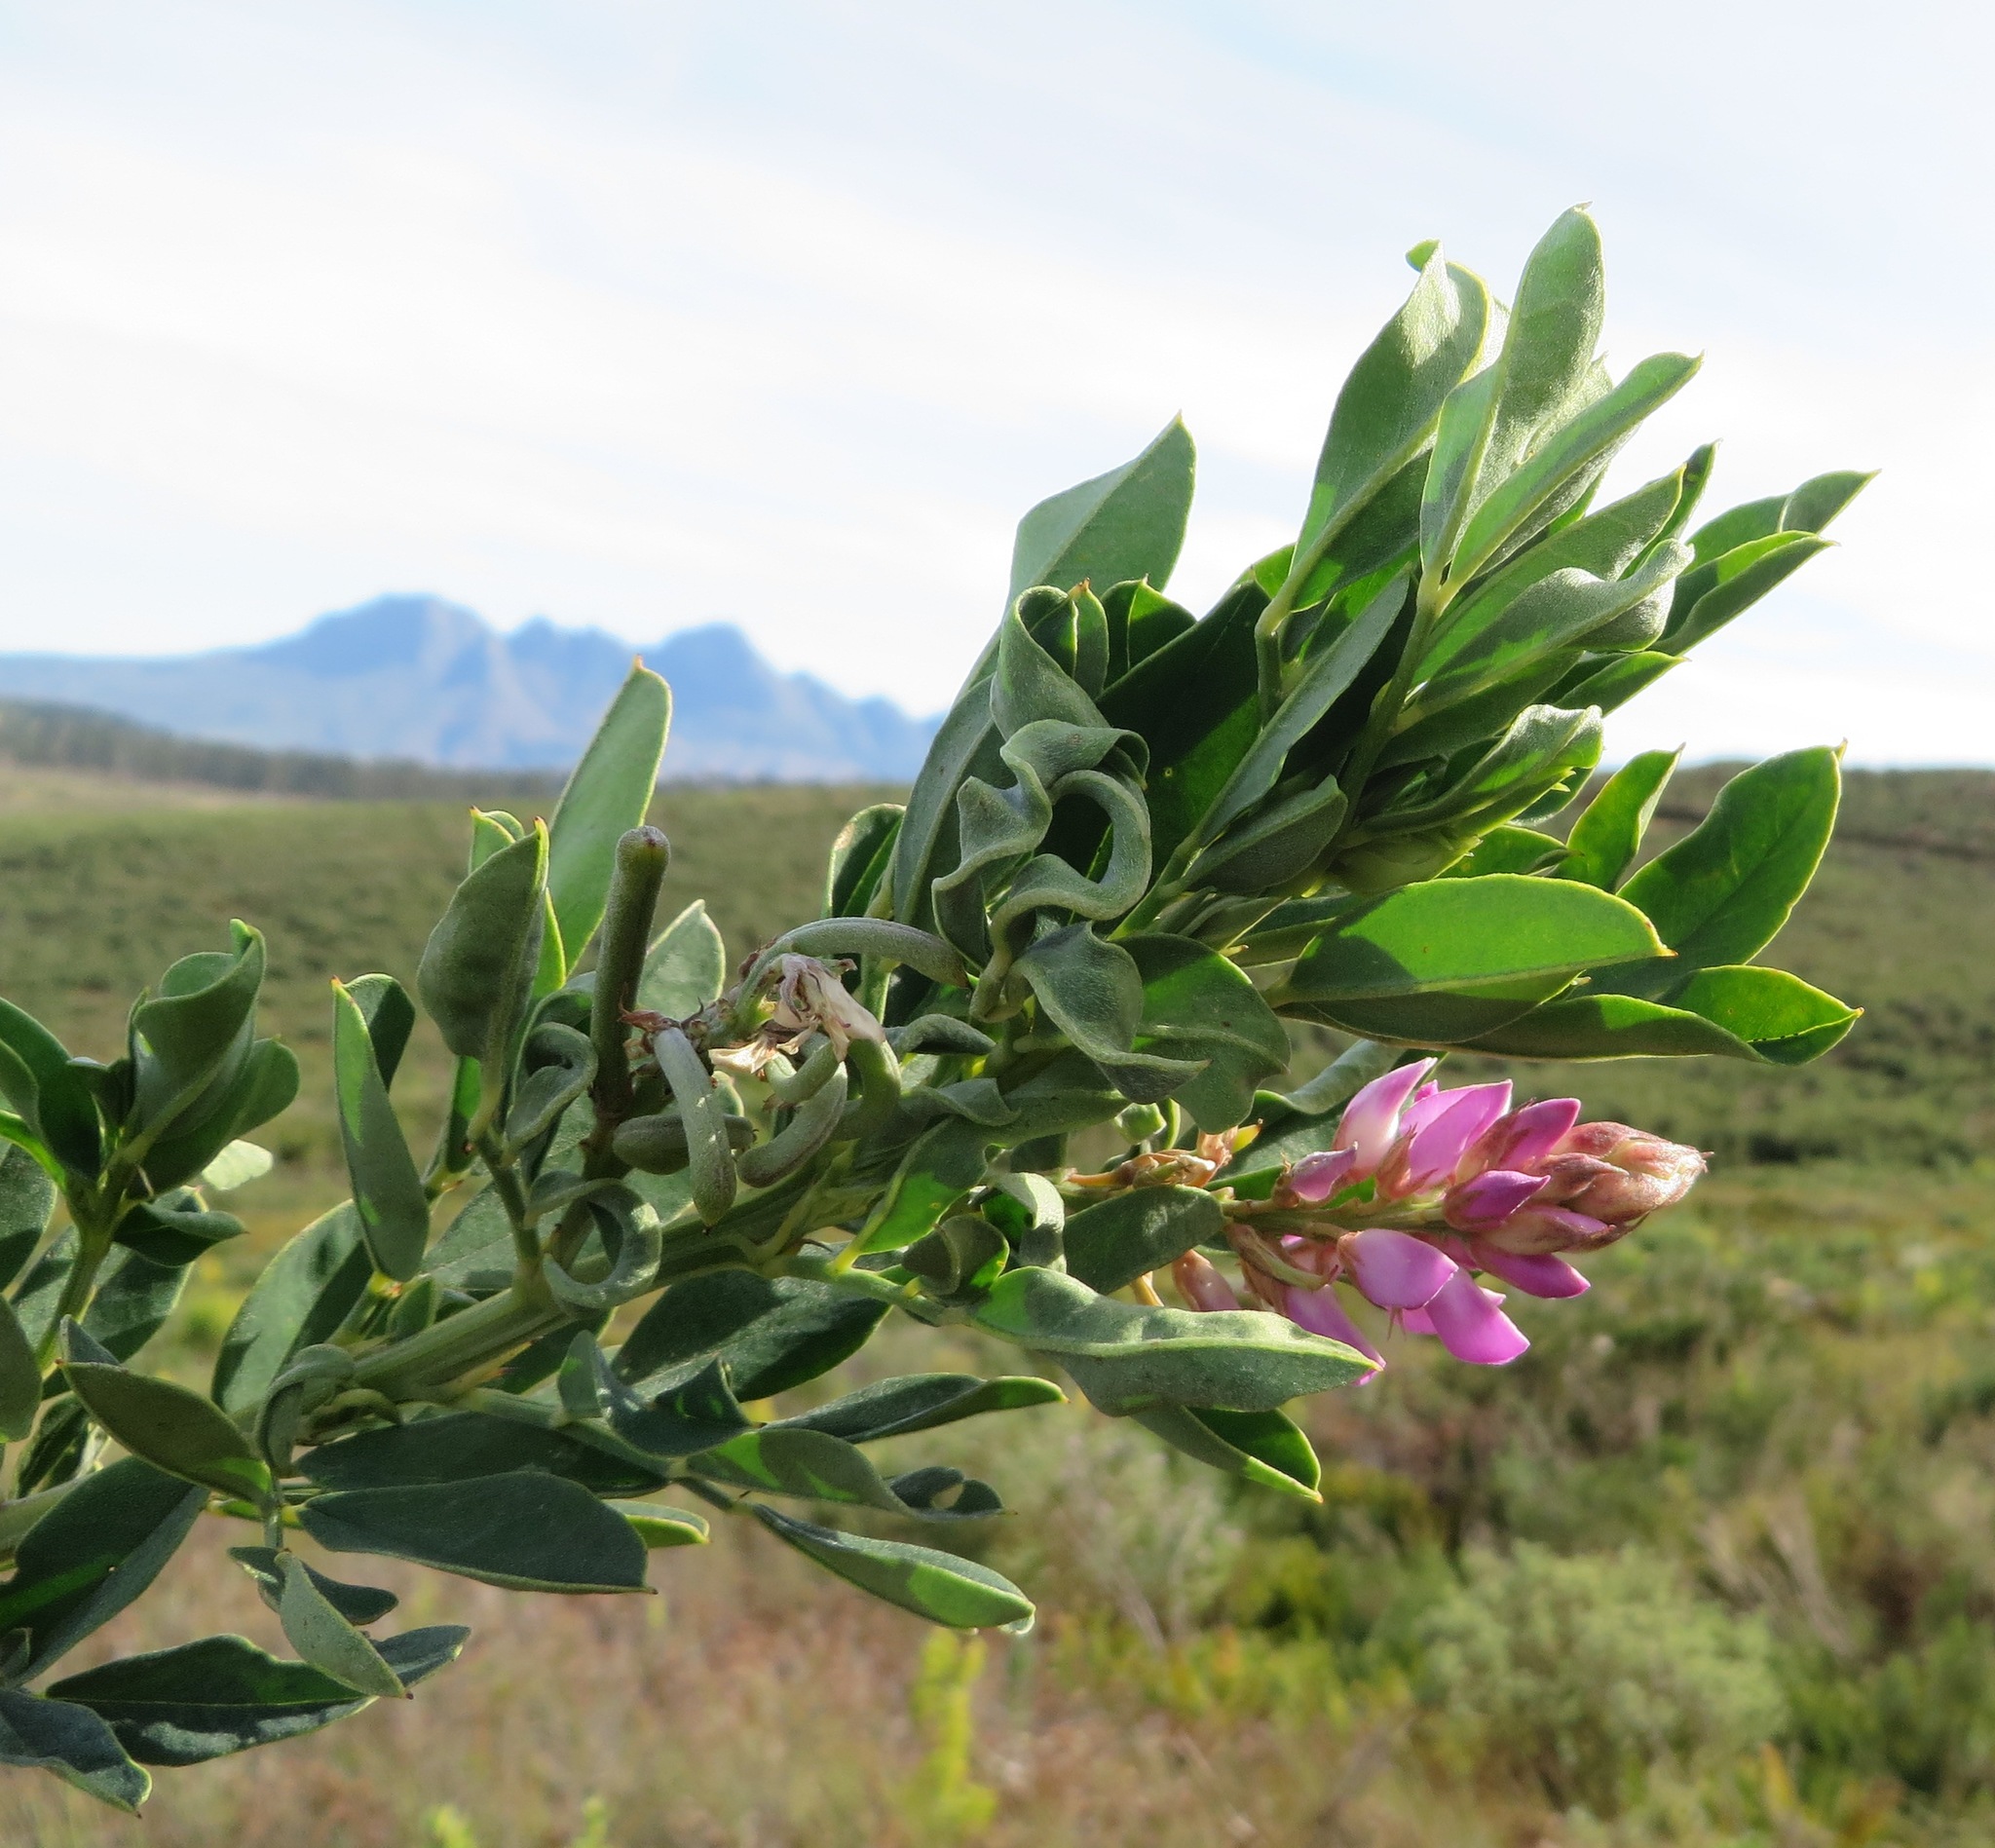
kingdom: Plantae
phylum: Tracheophyta
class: Magnoliopsida
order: Fabales
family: Fabaceae
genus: Indigofera
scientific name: Indigofera cytisoides
